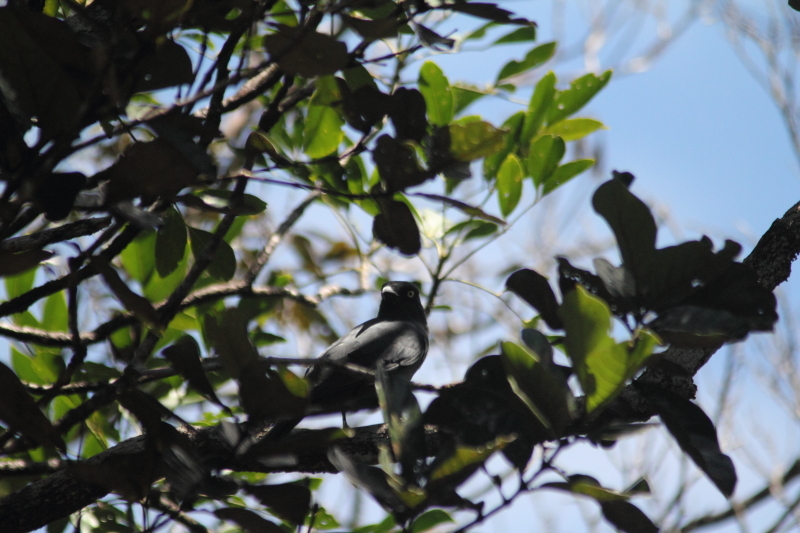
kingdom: Animalia
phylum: Chordata
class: Aves
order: Passeriformes
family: Campephagidae
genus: Coracina
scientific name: Coracina caledonica
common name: South melanesian cuckooshrike
